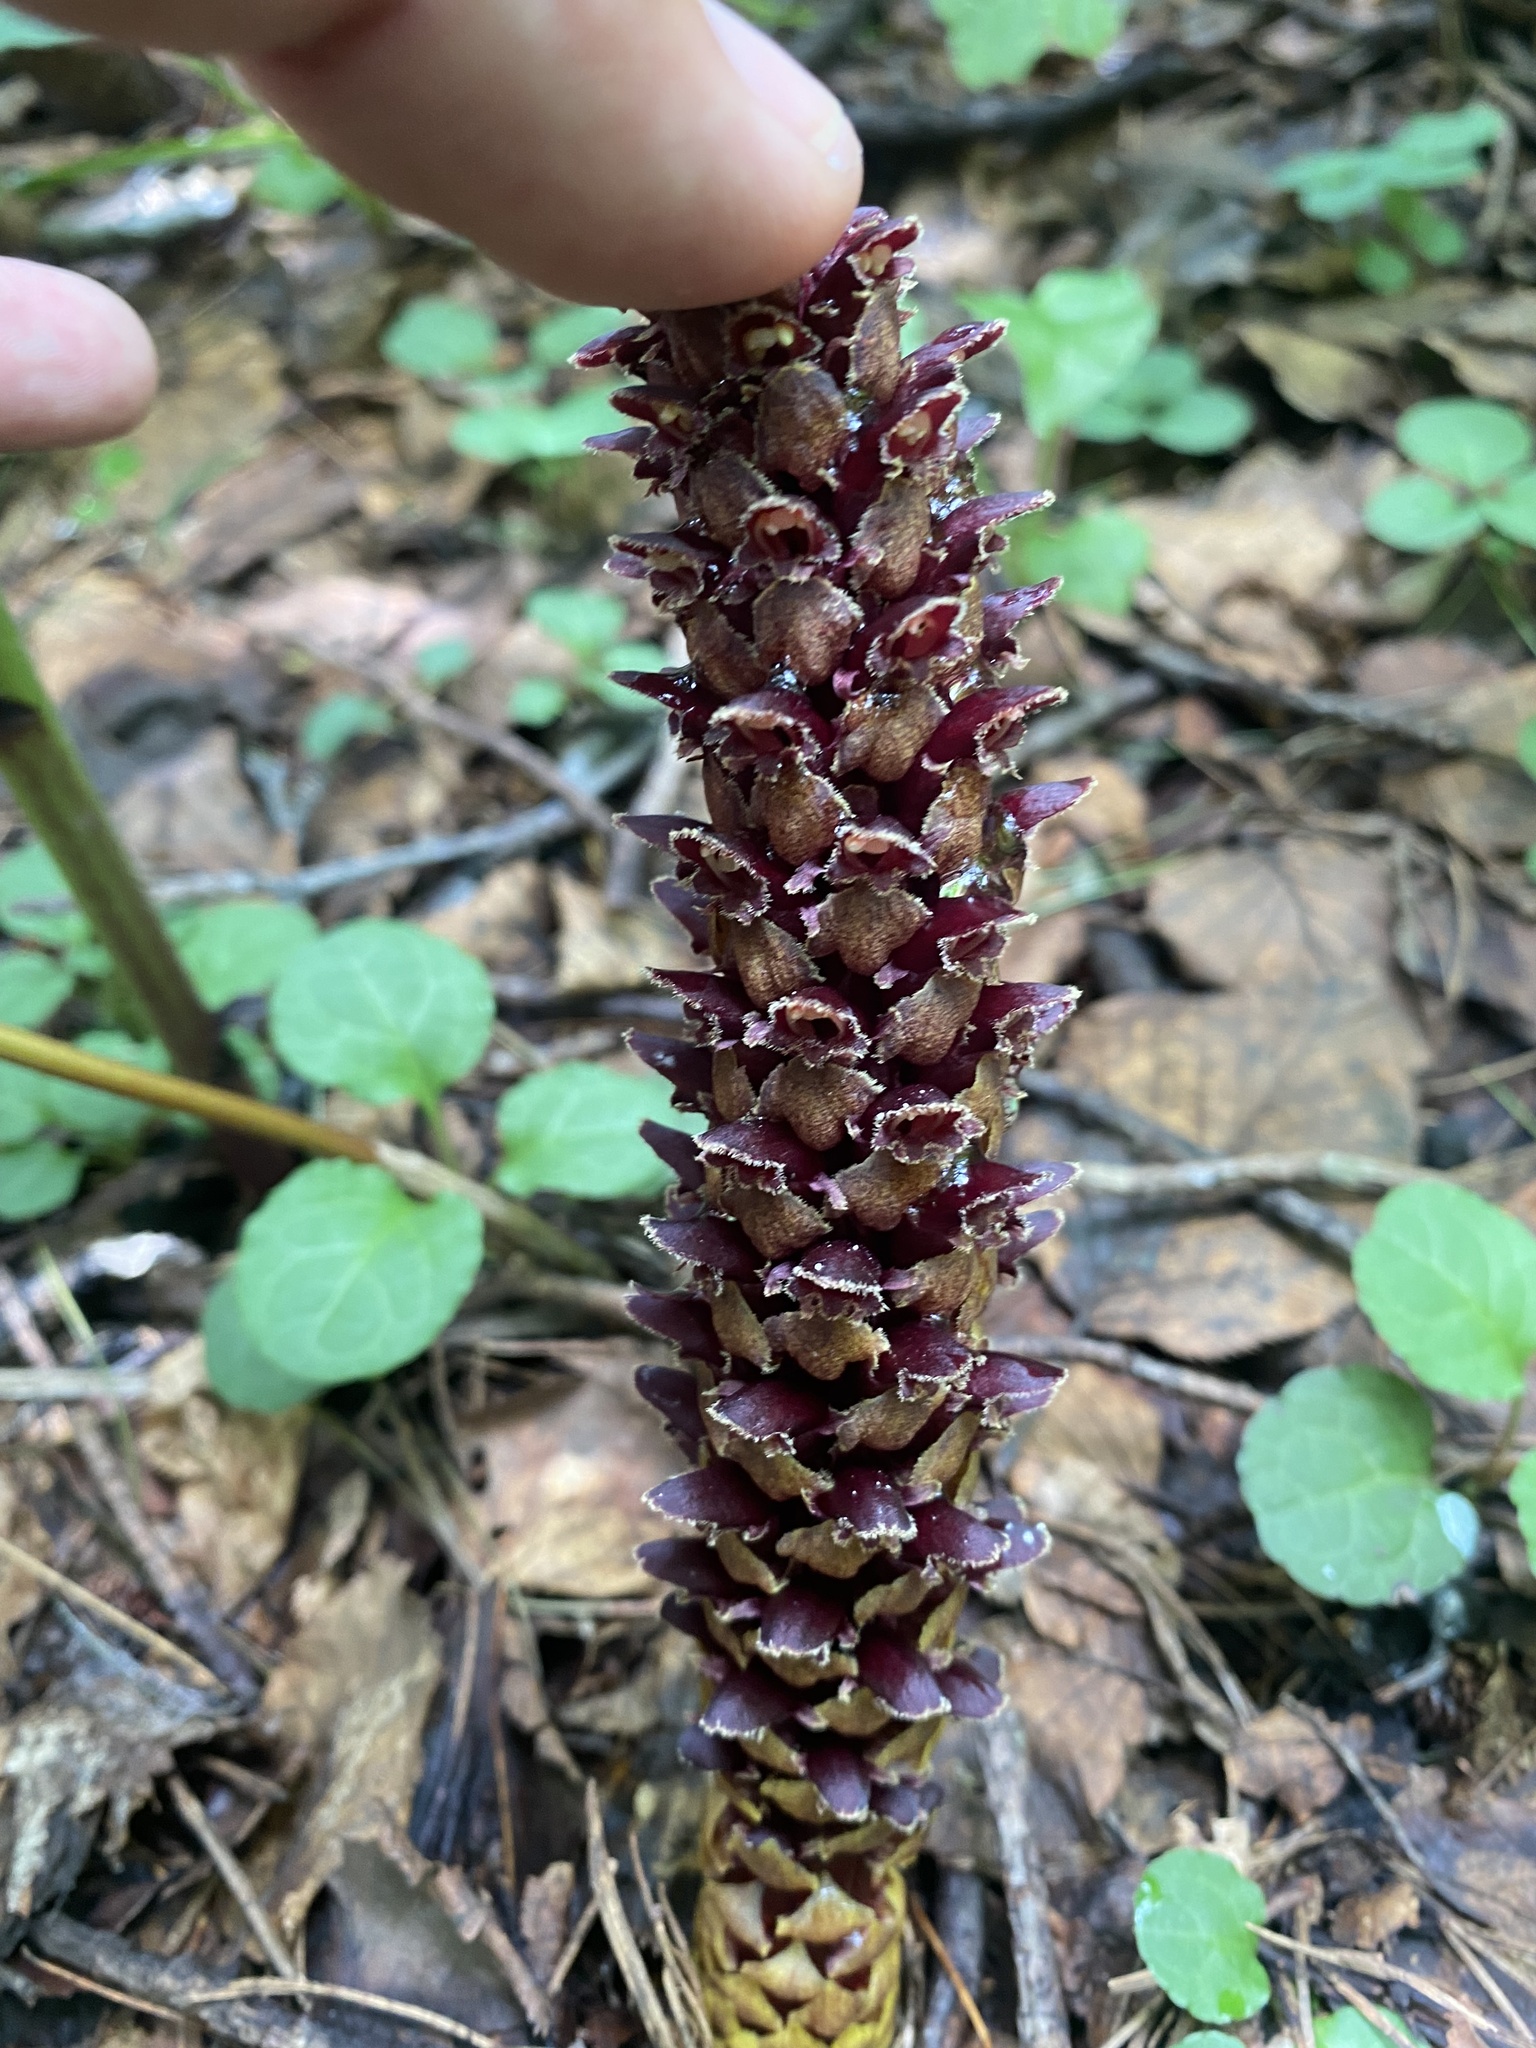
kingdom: Plantae
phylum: Tracheophyta
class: Magnoliopsida
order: Lamiales
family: Orobanchaceae
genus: Boschniakia
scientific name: Boschniakia rossica
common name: Poque
